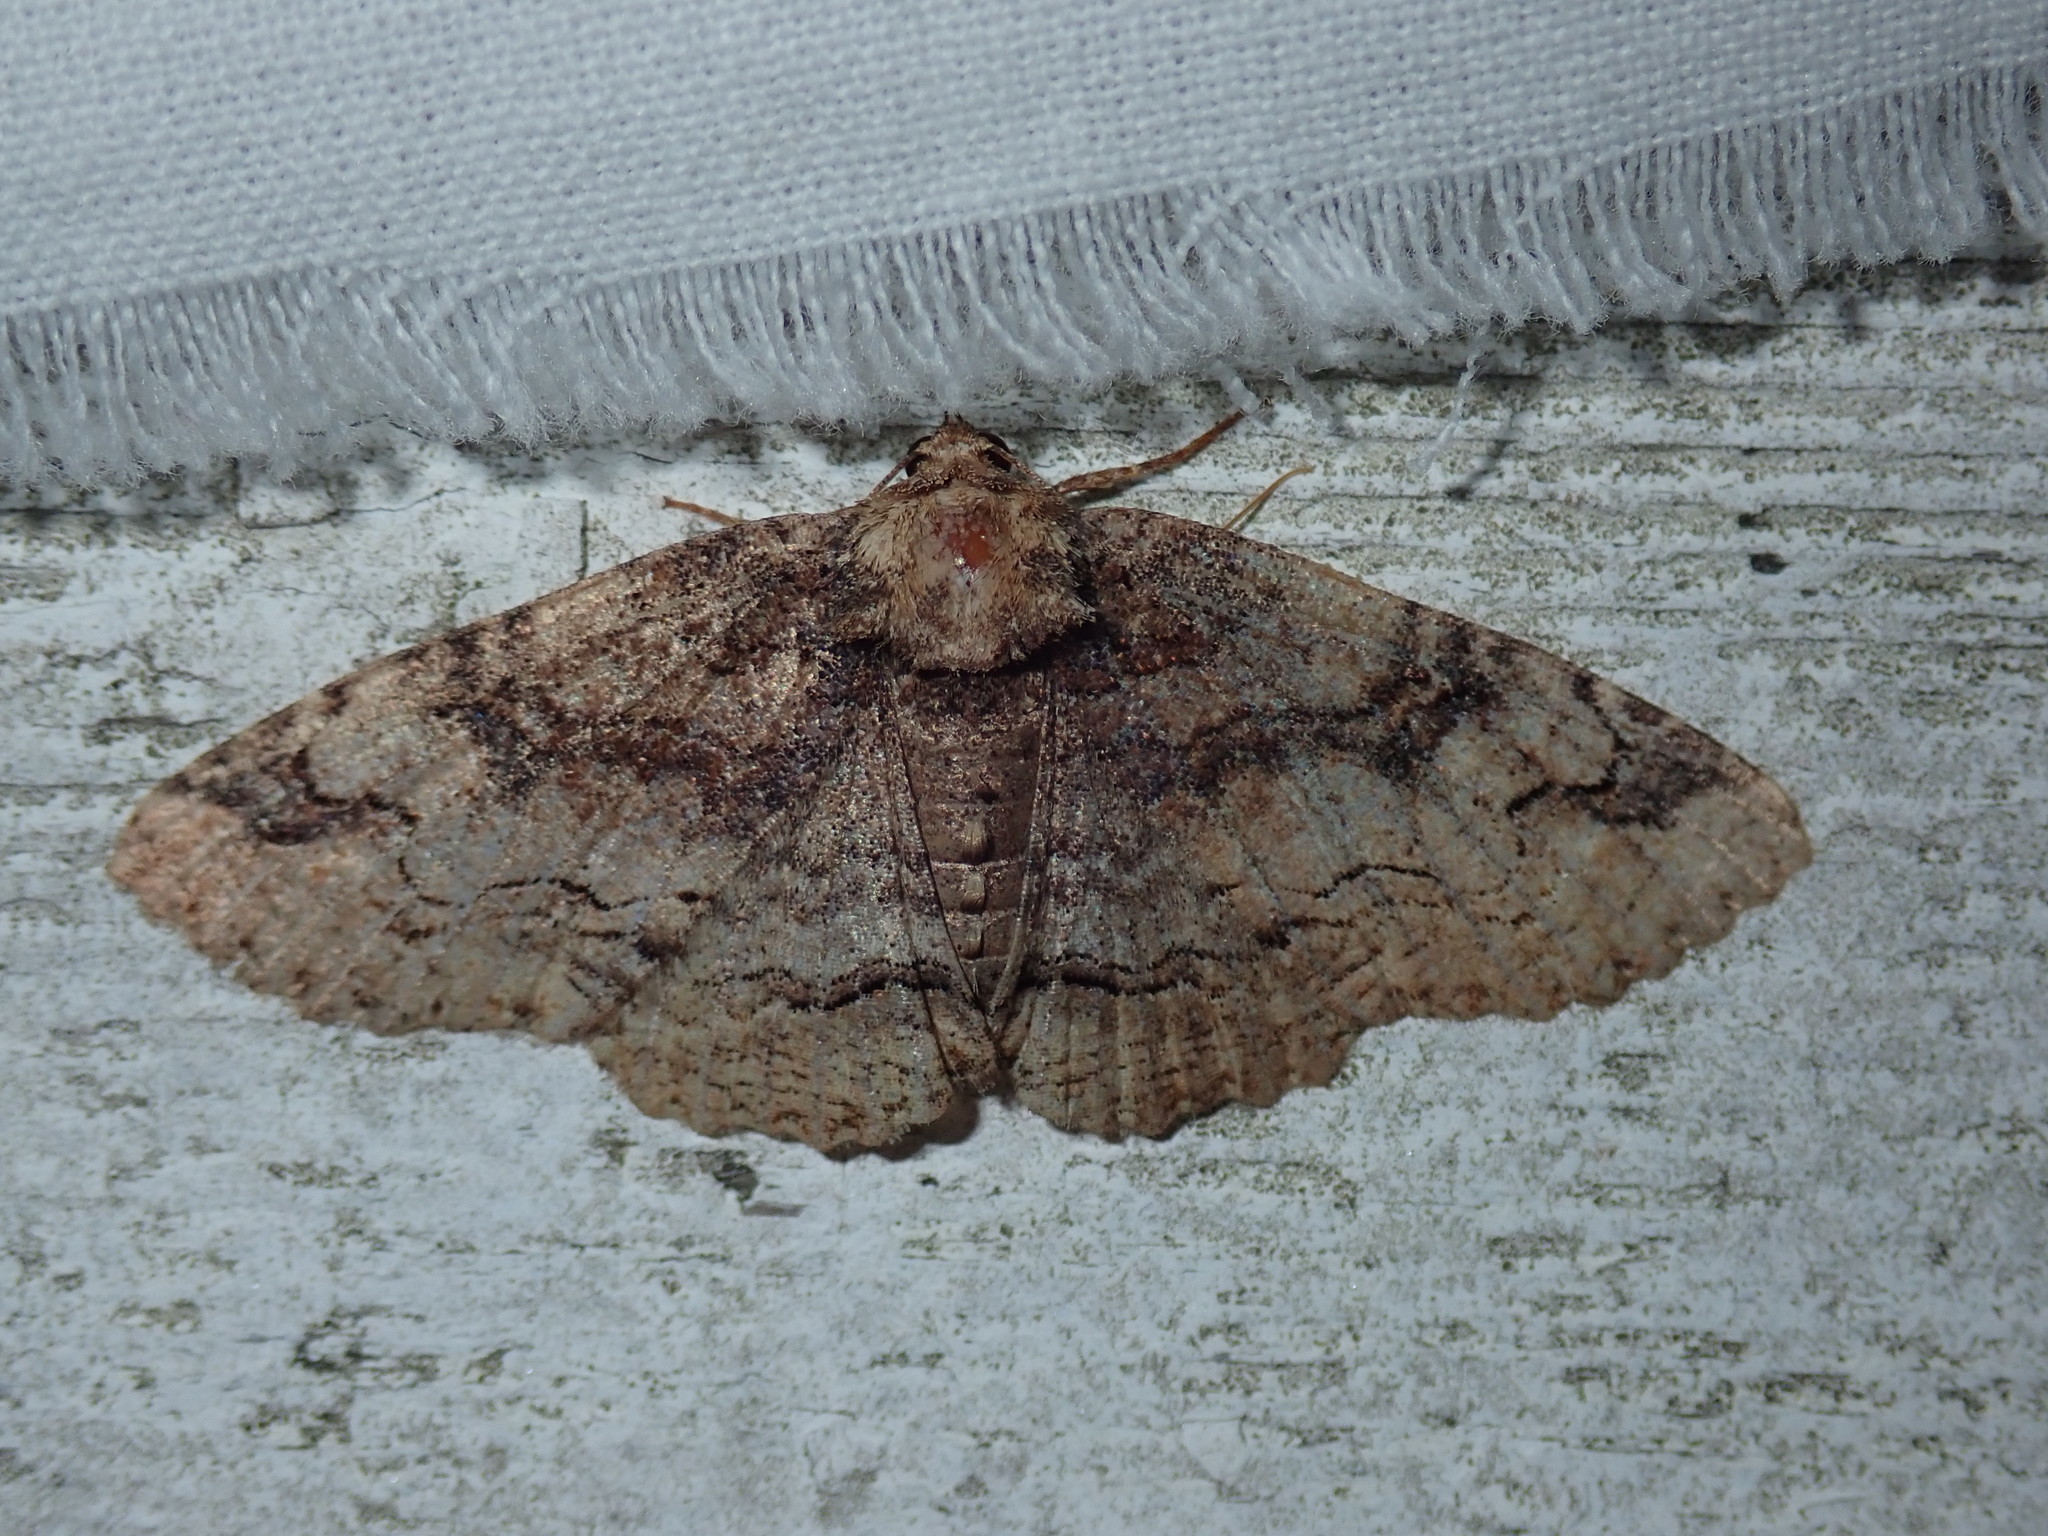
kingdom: Animalia
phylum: Arthropoda
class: Insecta
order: Lepidoptera
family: Erebidae
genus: Zale
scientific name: Zale galbanata
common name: Maple zale
